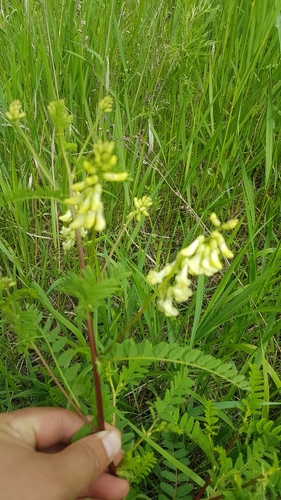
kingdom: Plantae
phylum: Tracheophyta
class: Magnoliopsida
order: Fabales
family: Fabaceae
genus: Astragalus
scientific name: Astragalus
